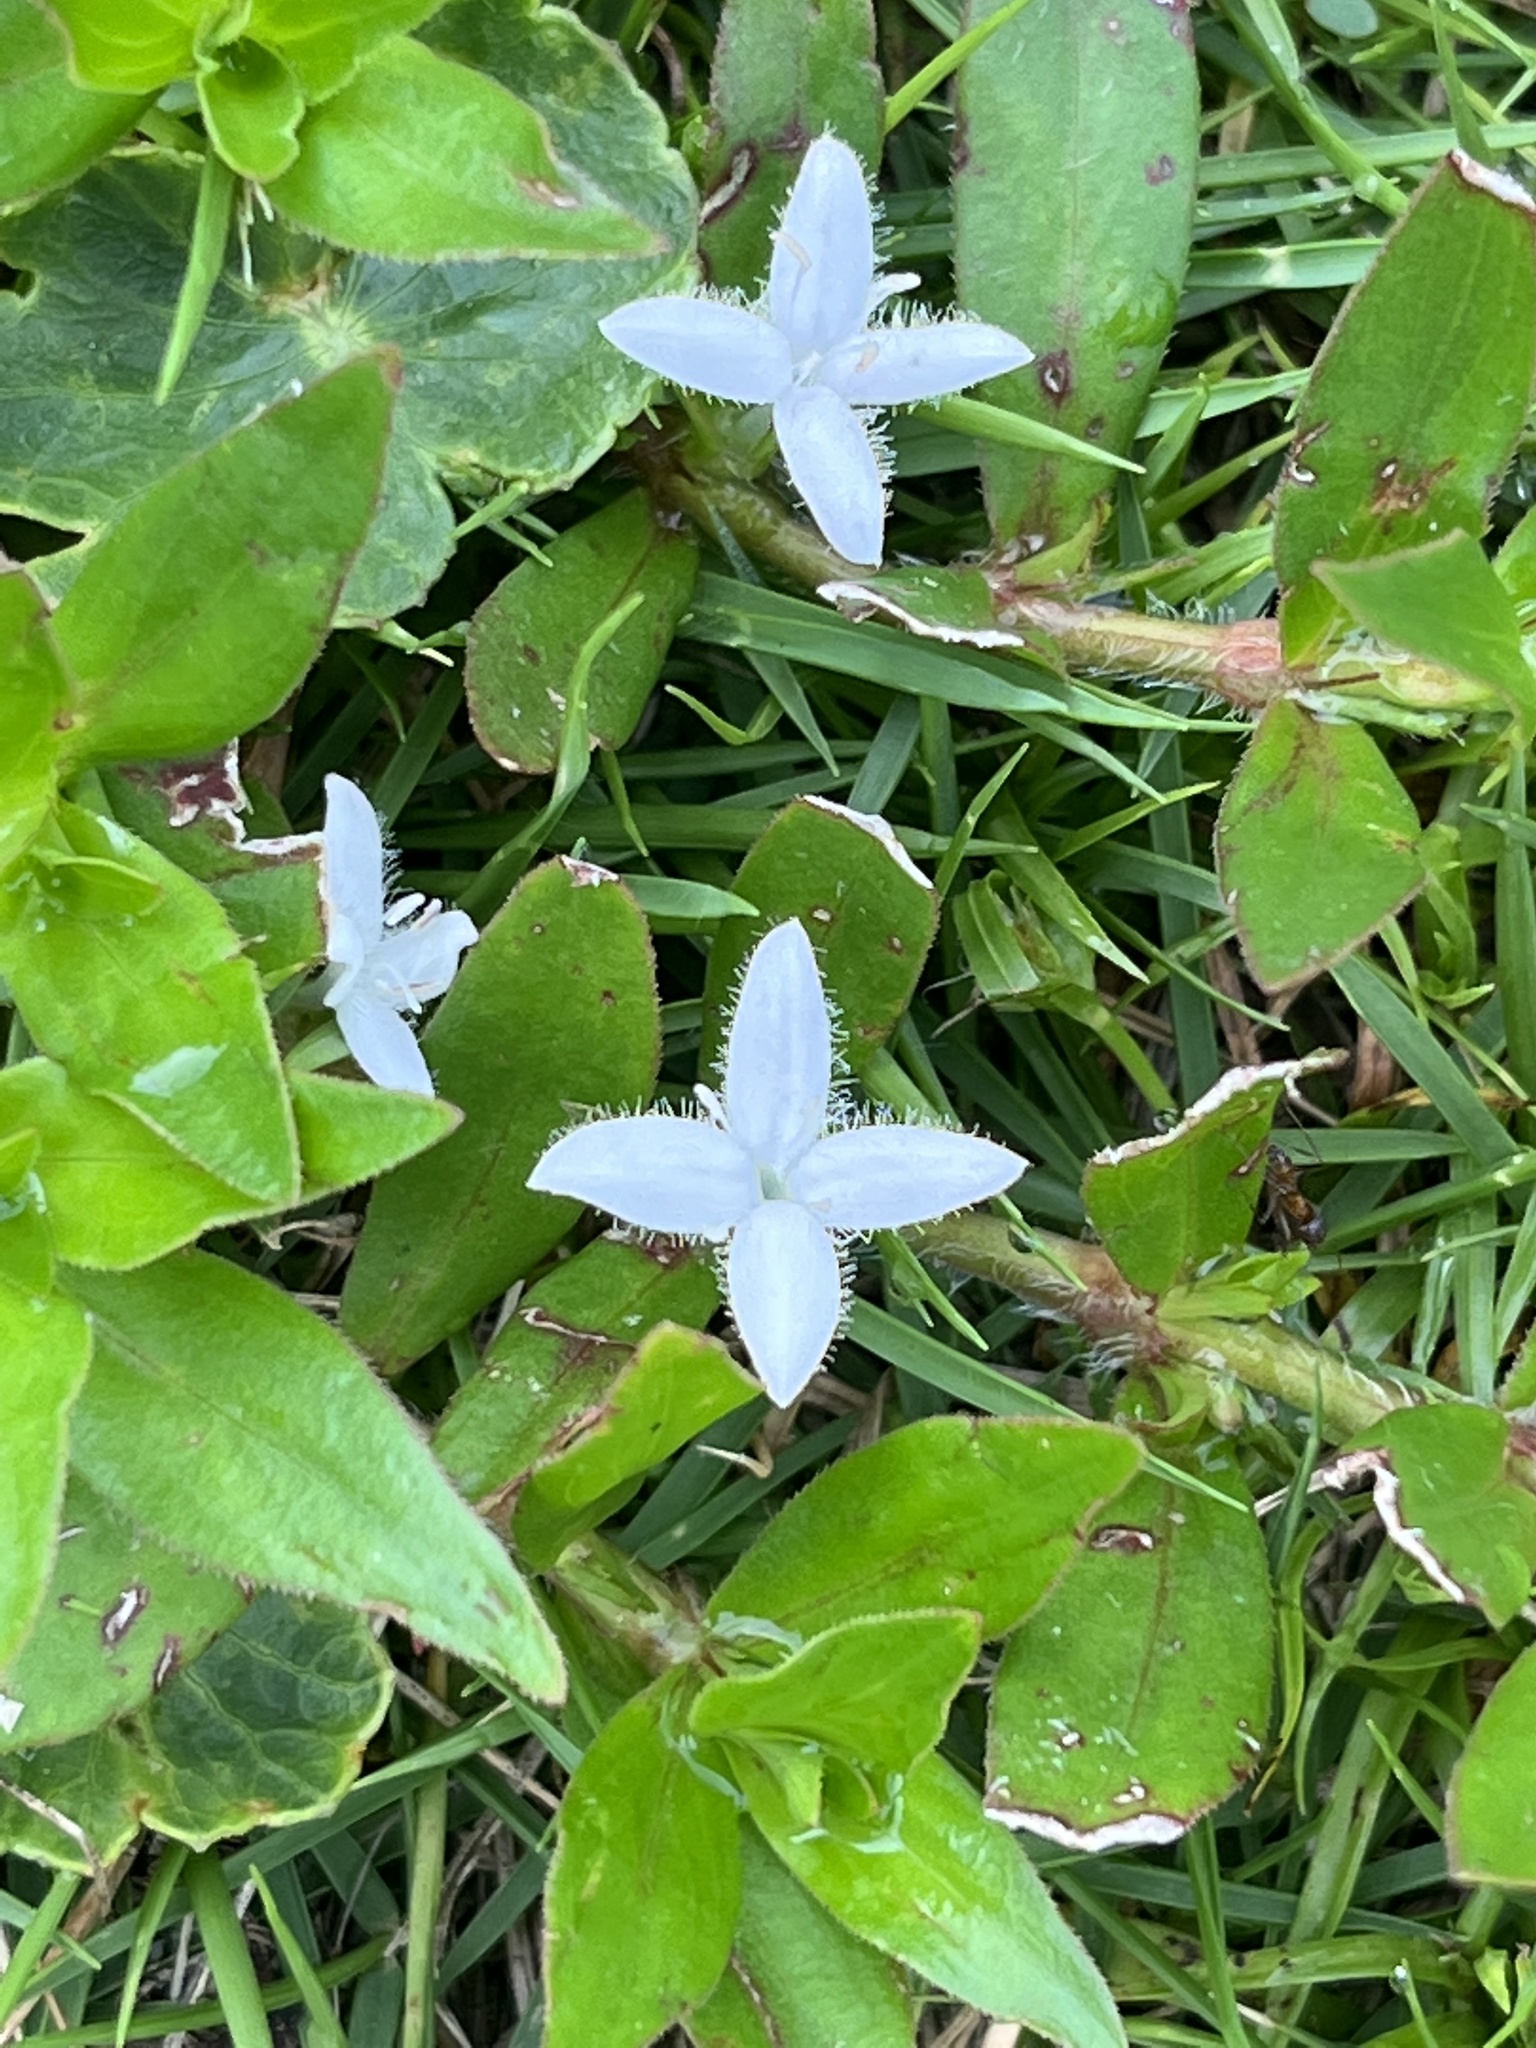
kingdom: Plantae
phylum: Tracheophyta
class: Magnoliopsida
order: Gentianales
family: Rubiaceae
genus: Diodia
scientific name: Diodia virginiana
